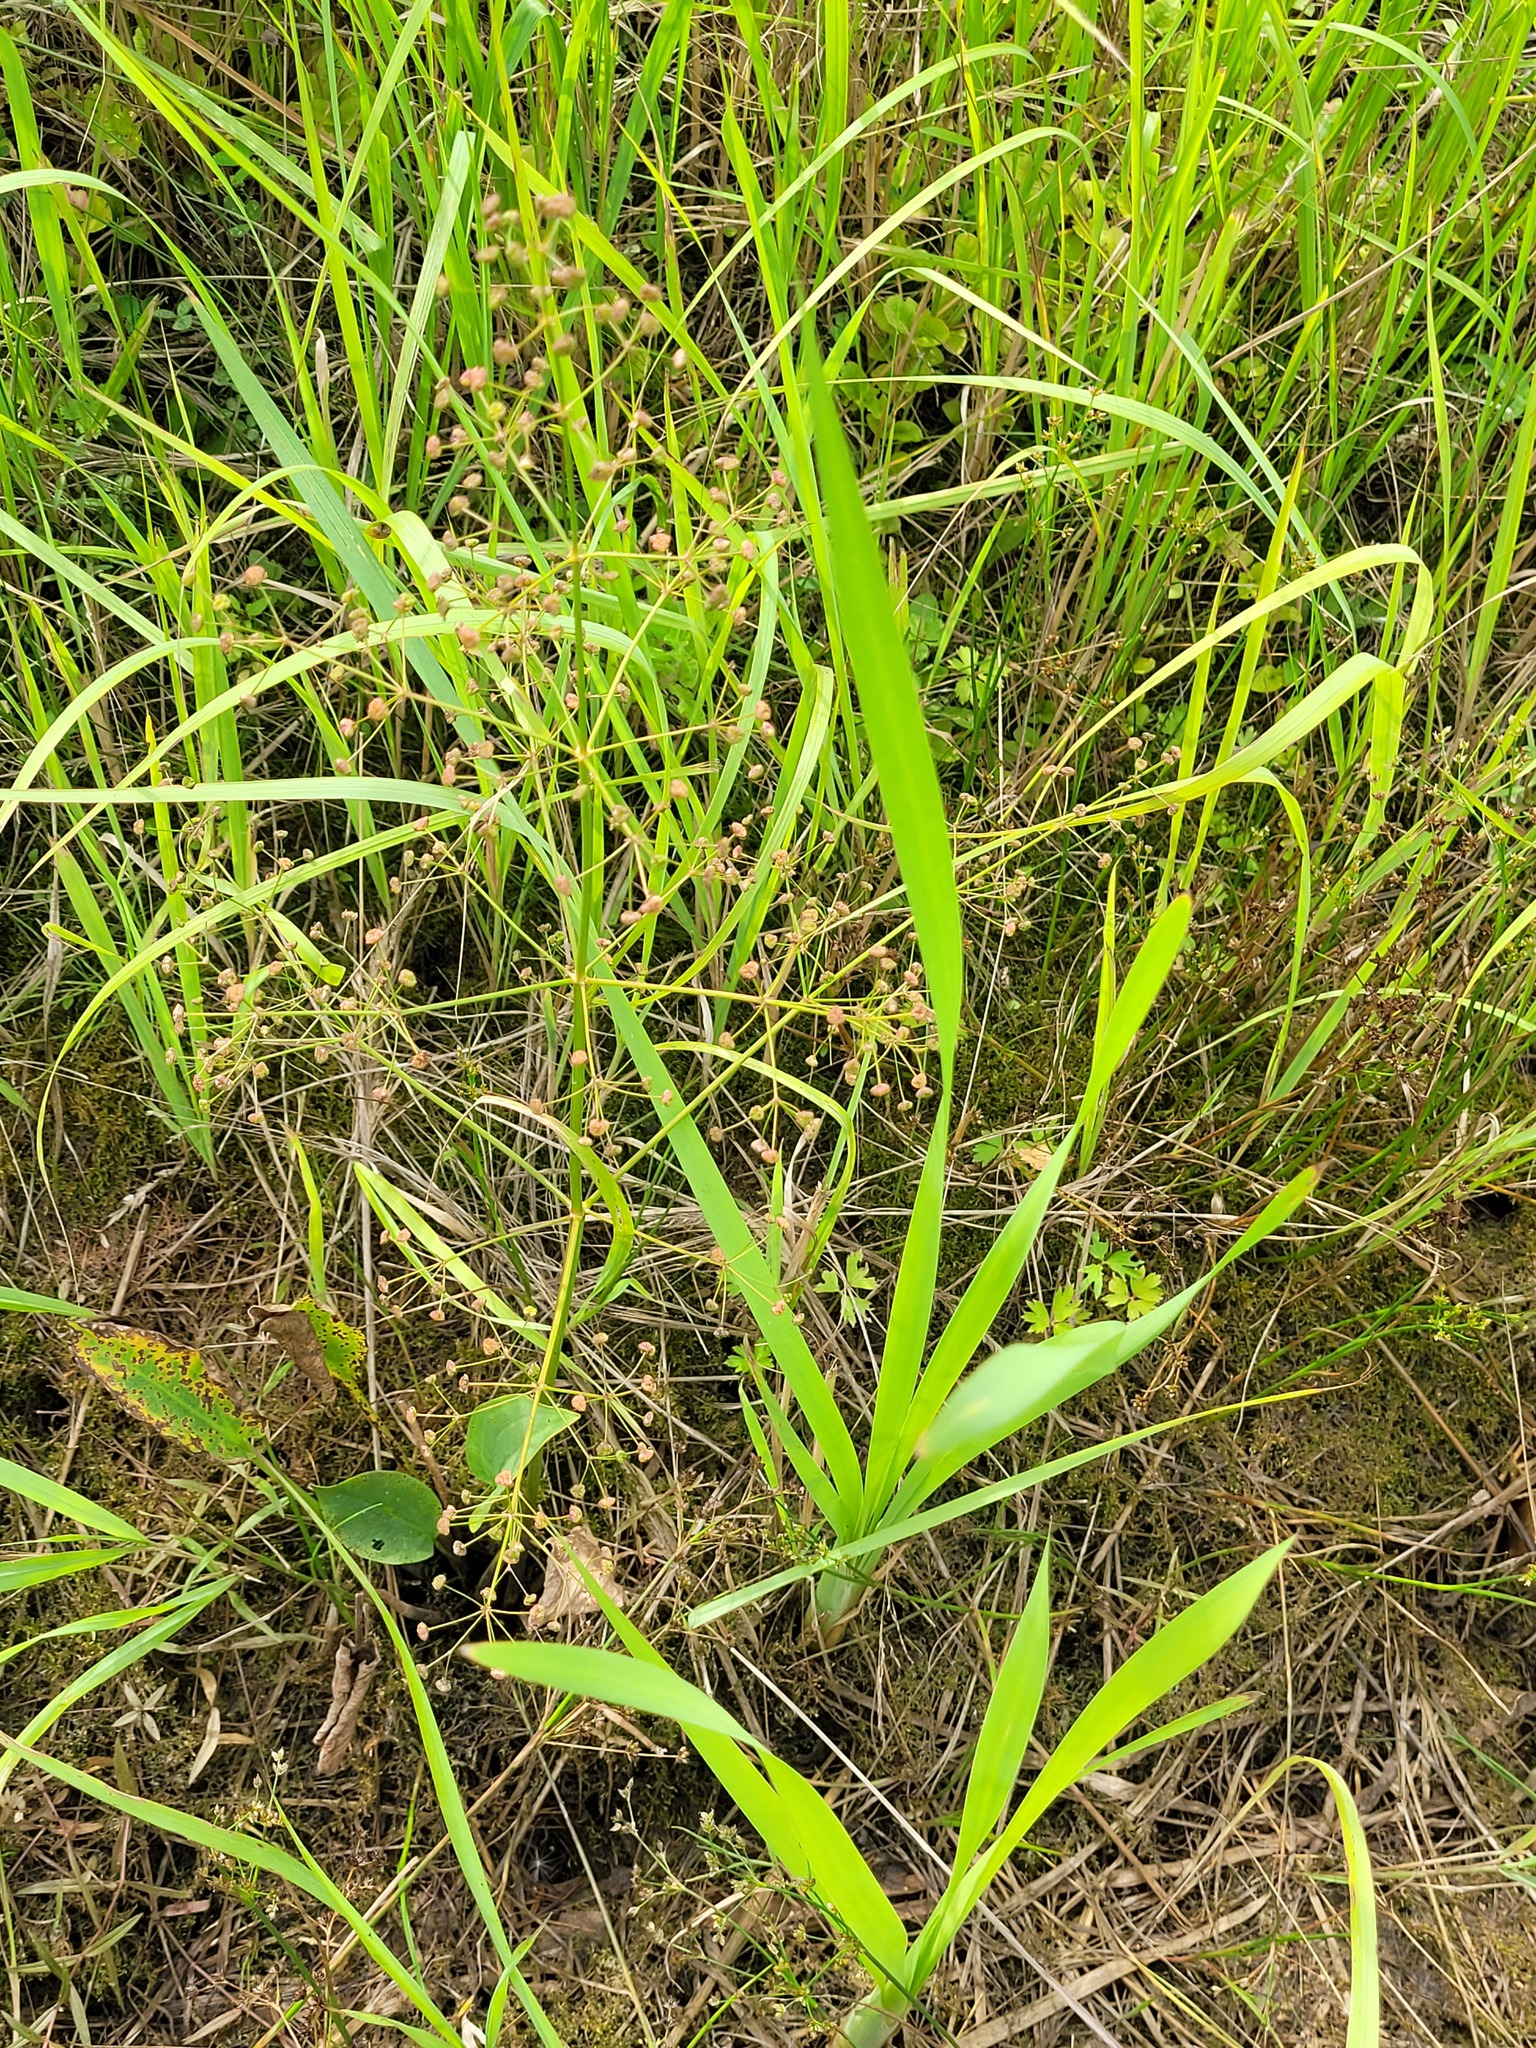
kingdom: Plantae
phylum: Tracheophyta
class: Liliopsida
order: Alismatales
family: Alismataceae
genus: Alisma
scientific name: Alisma plantago-aquatica
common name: Water-plantain
